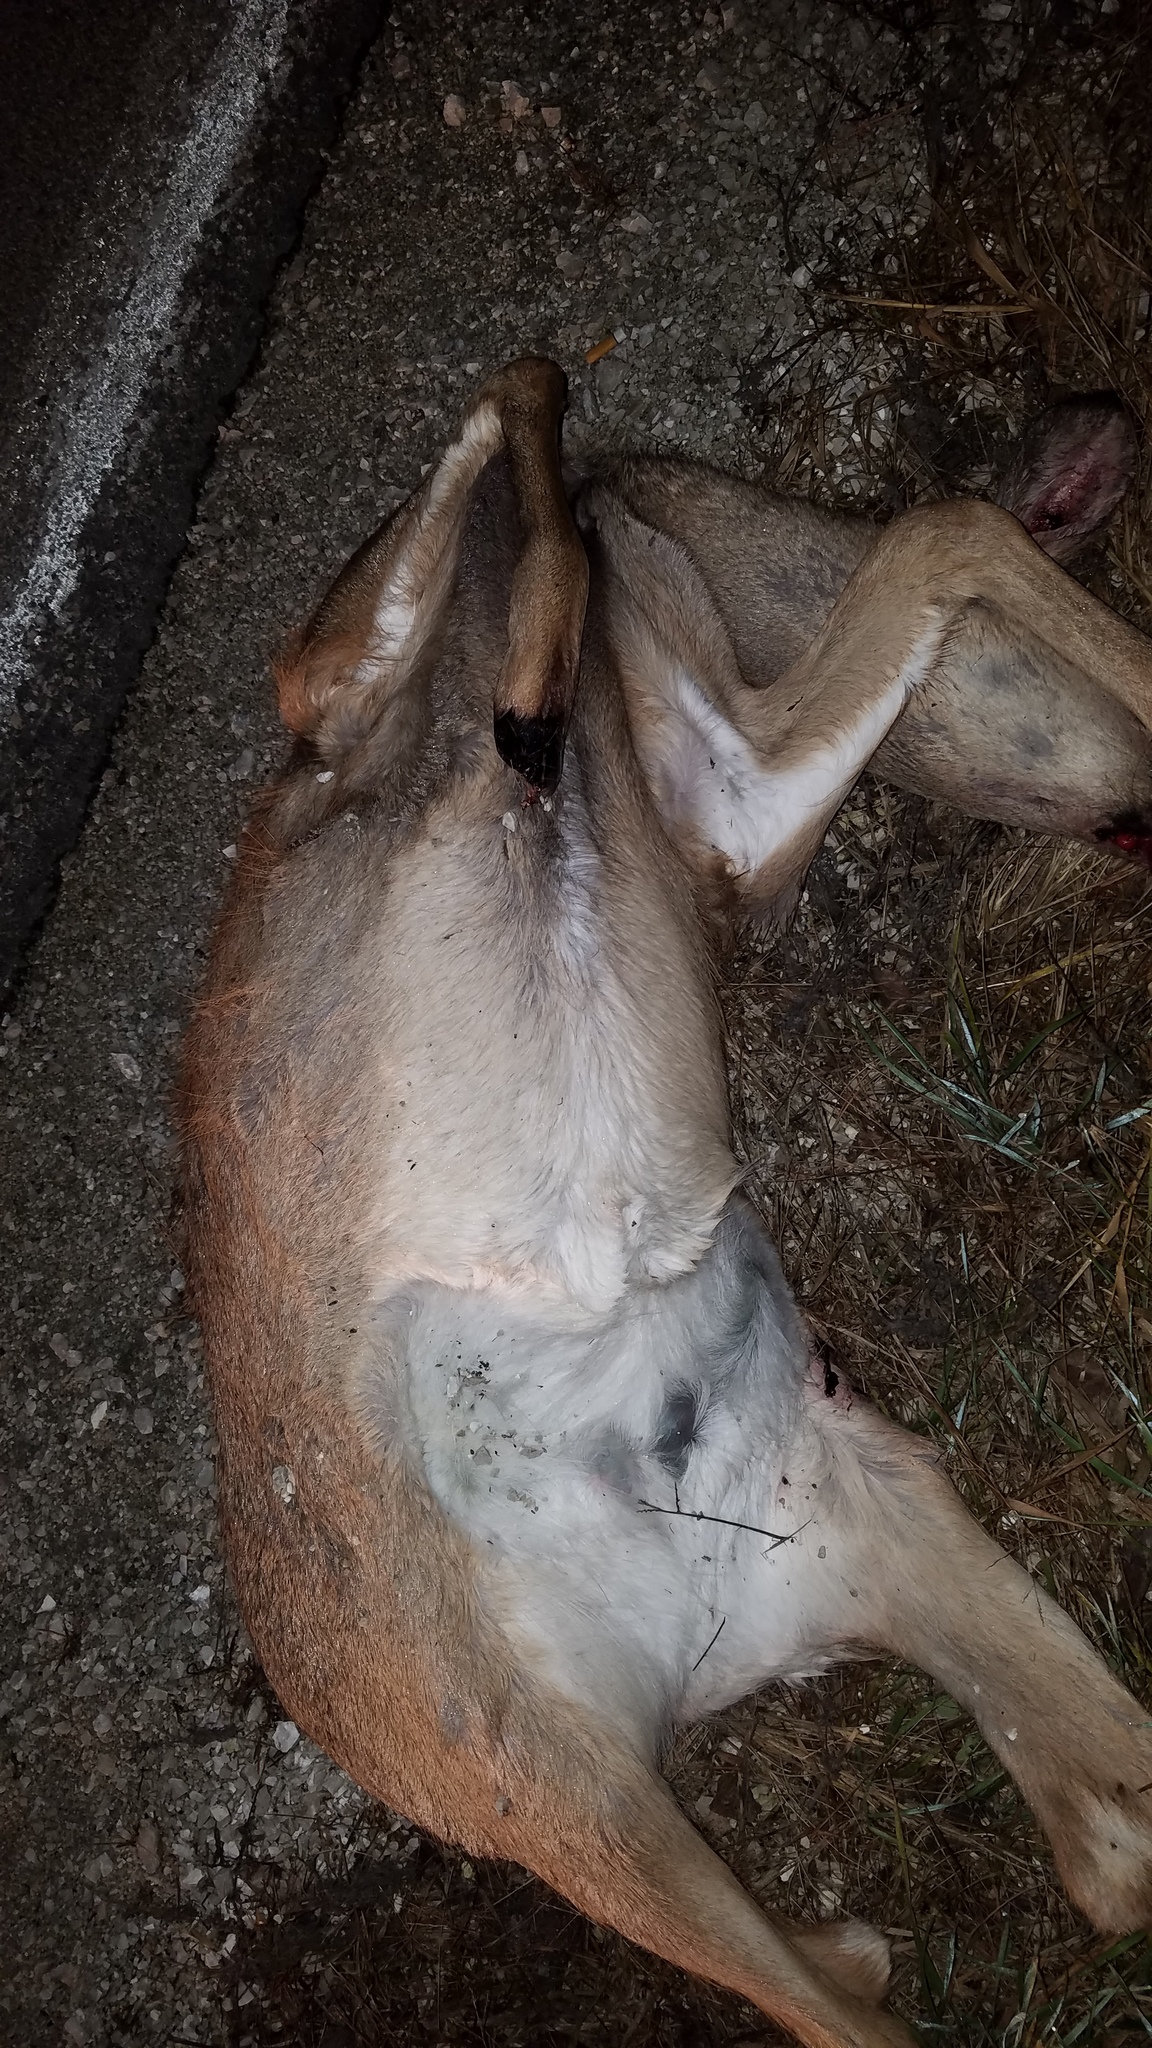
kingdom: Animalia
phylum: Chordata
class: Mammalia
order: Artiodactyla
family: Cervidae
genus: Odocoileus
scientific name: Odocoileus virginianus
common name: White-tailed deer
